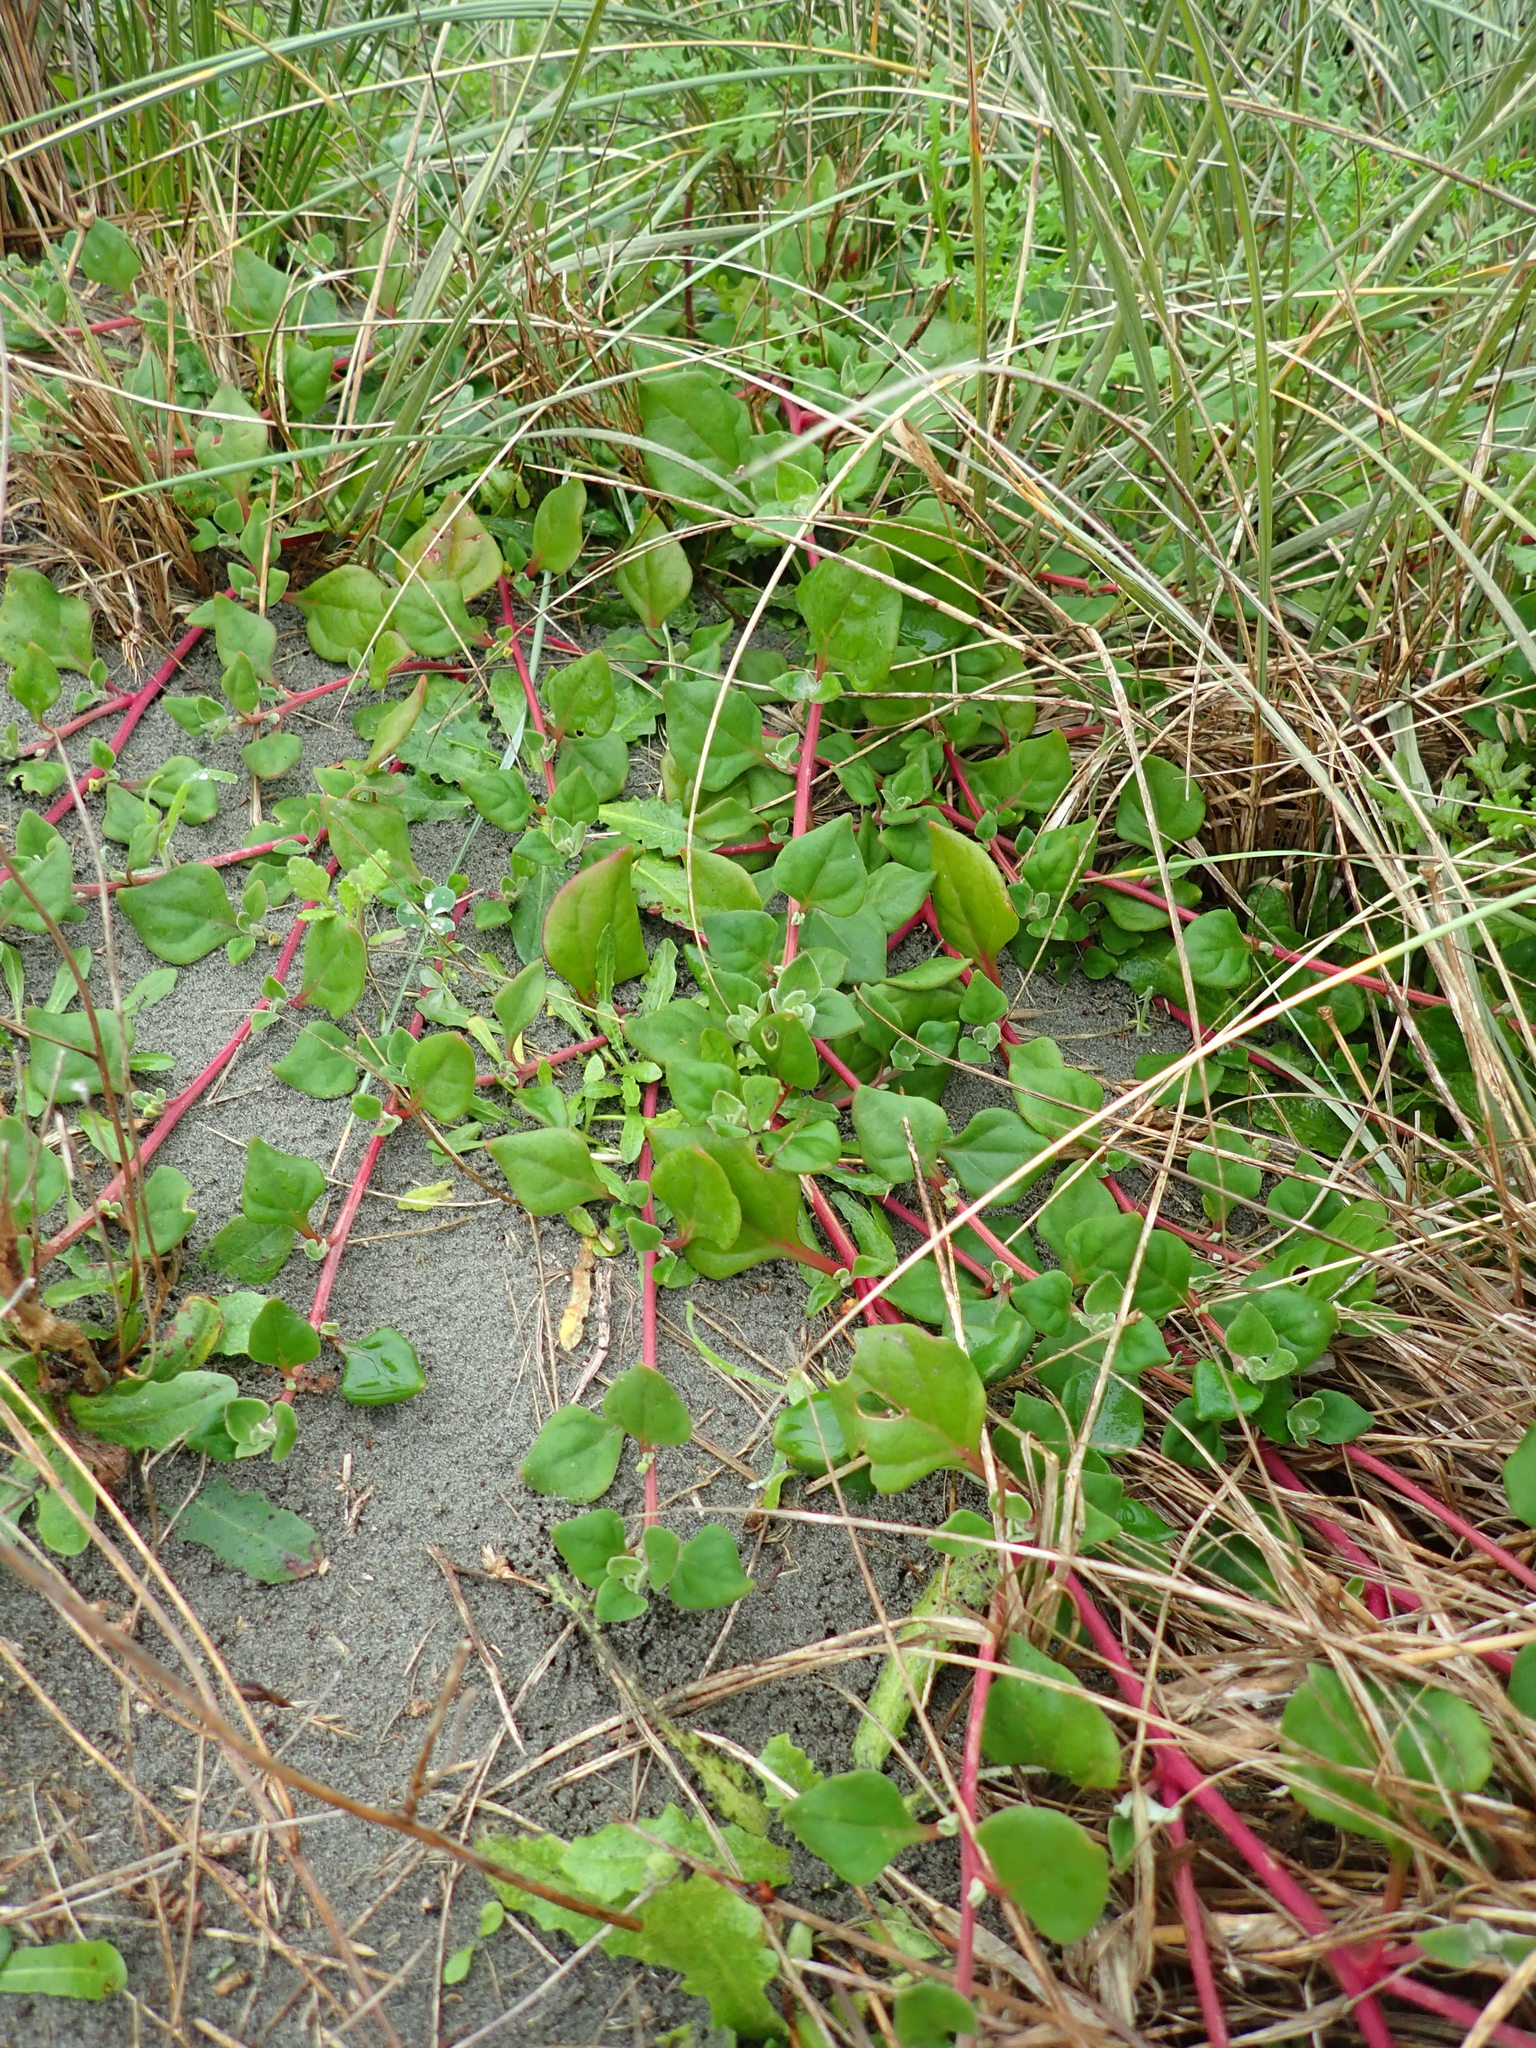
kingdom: Plantae
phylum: Tracheophyta
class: Magnoliopsida
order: Caryophyllales
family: Aizoaceae
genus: Tetragonia
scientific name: Tetragonia implexicoma
